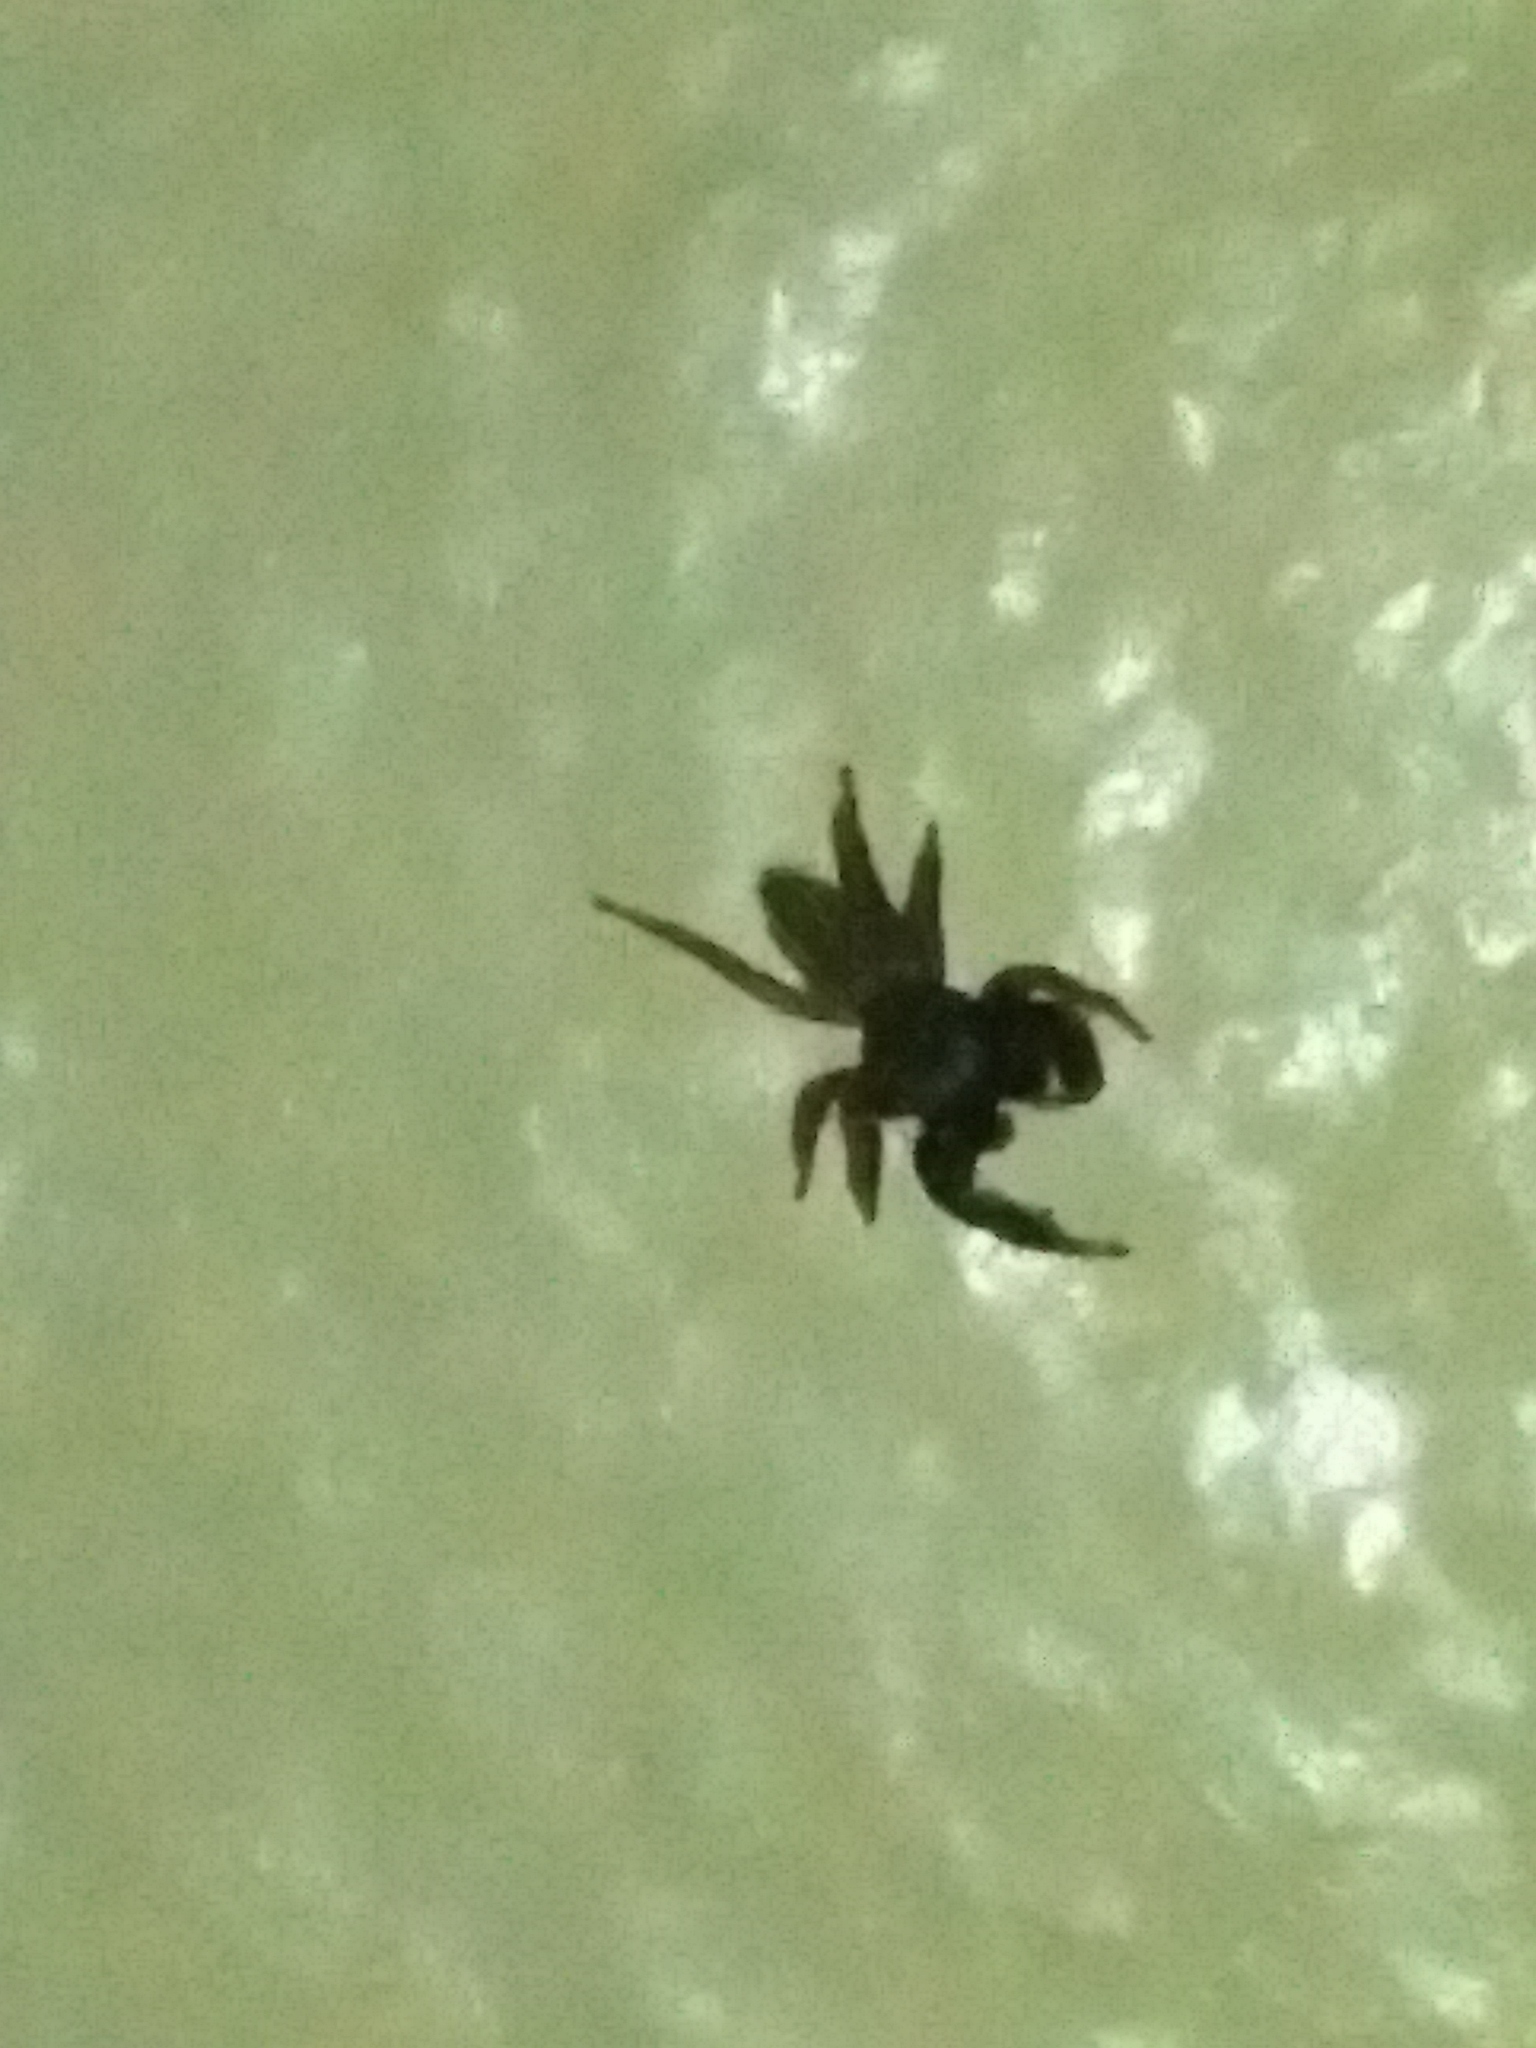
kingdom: Animalia
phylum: Arthropoda
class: Arachnida
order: Araneae
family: Salticidae
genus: Metacyrba
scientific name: Metacyrba taeniola
